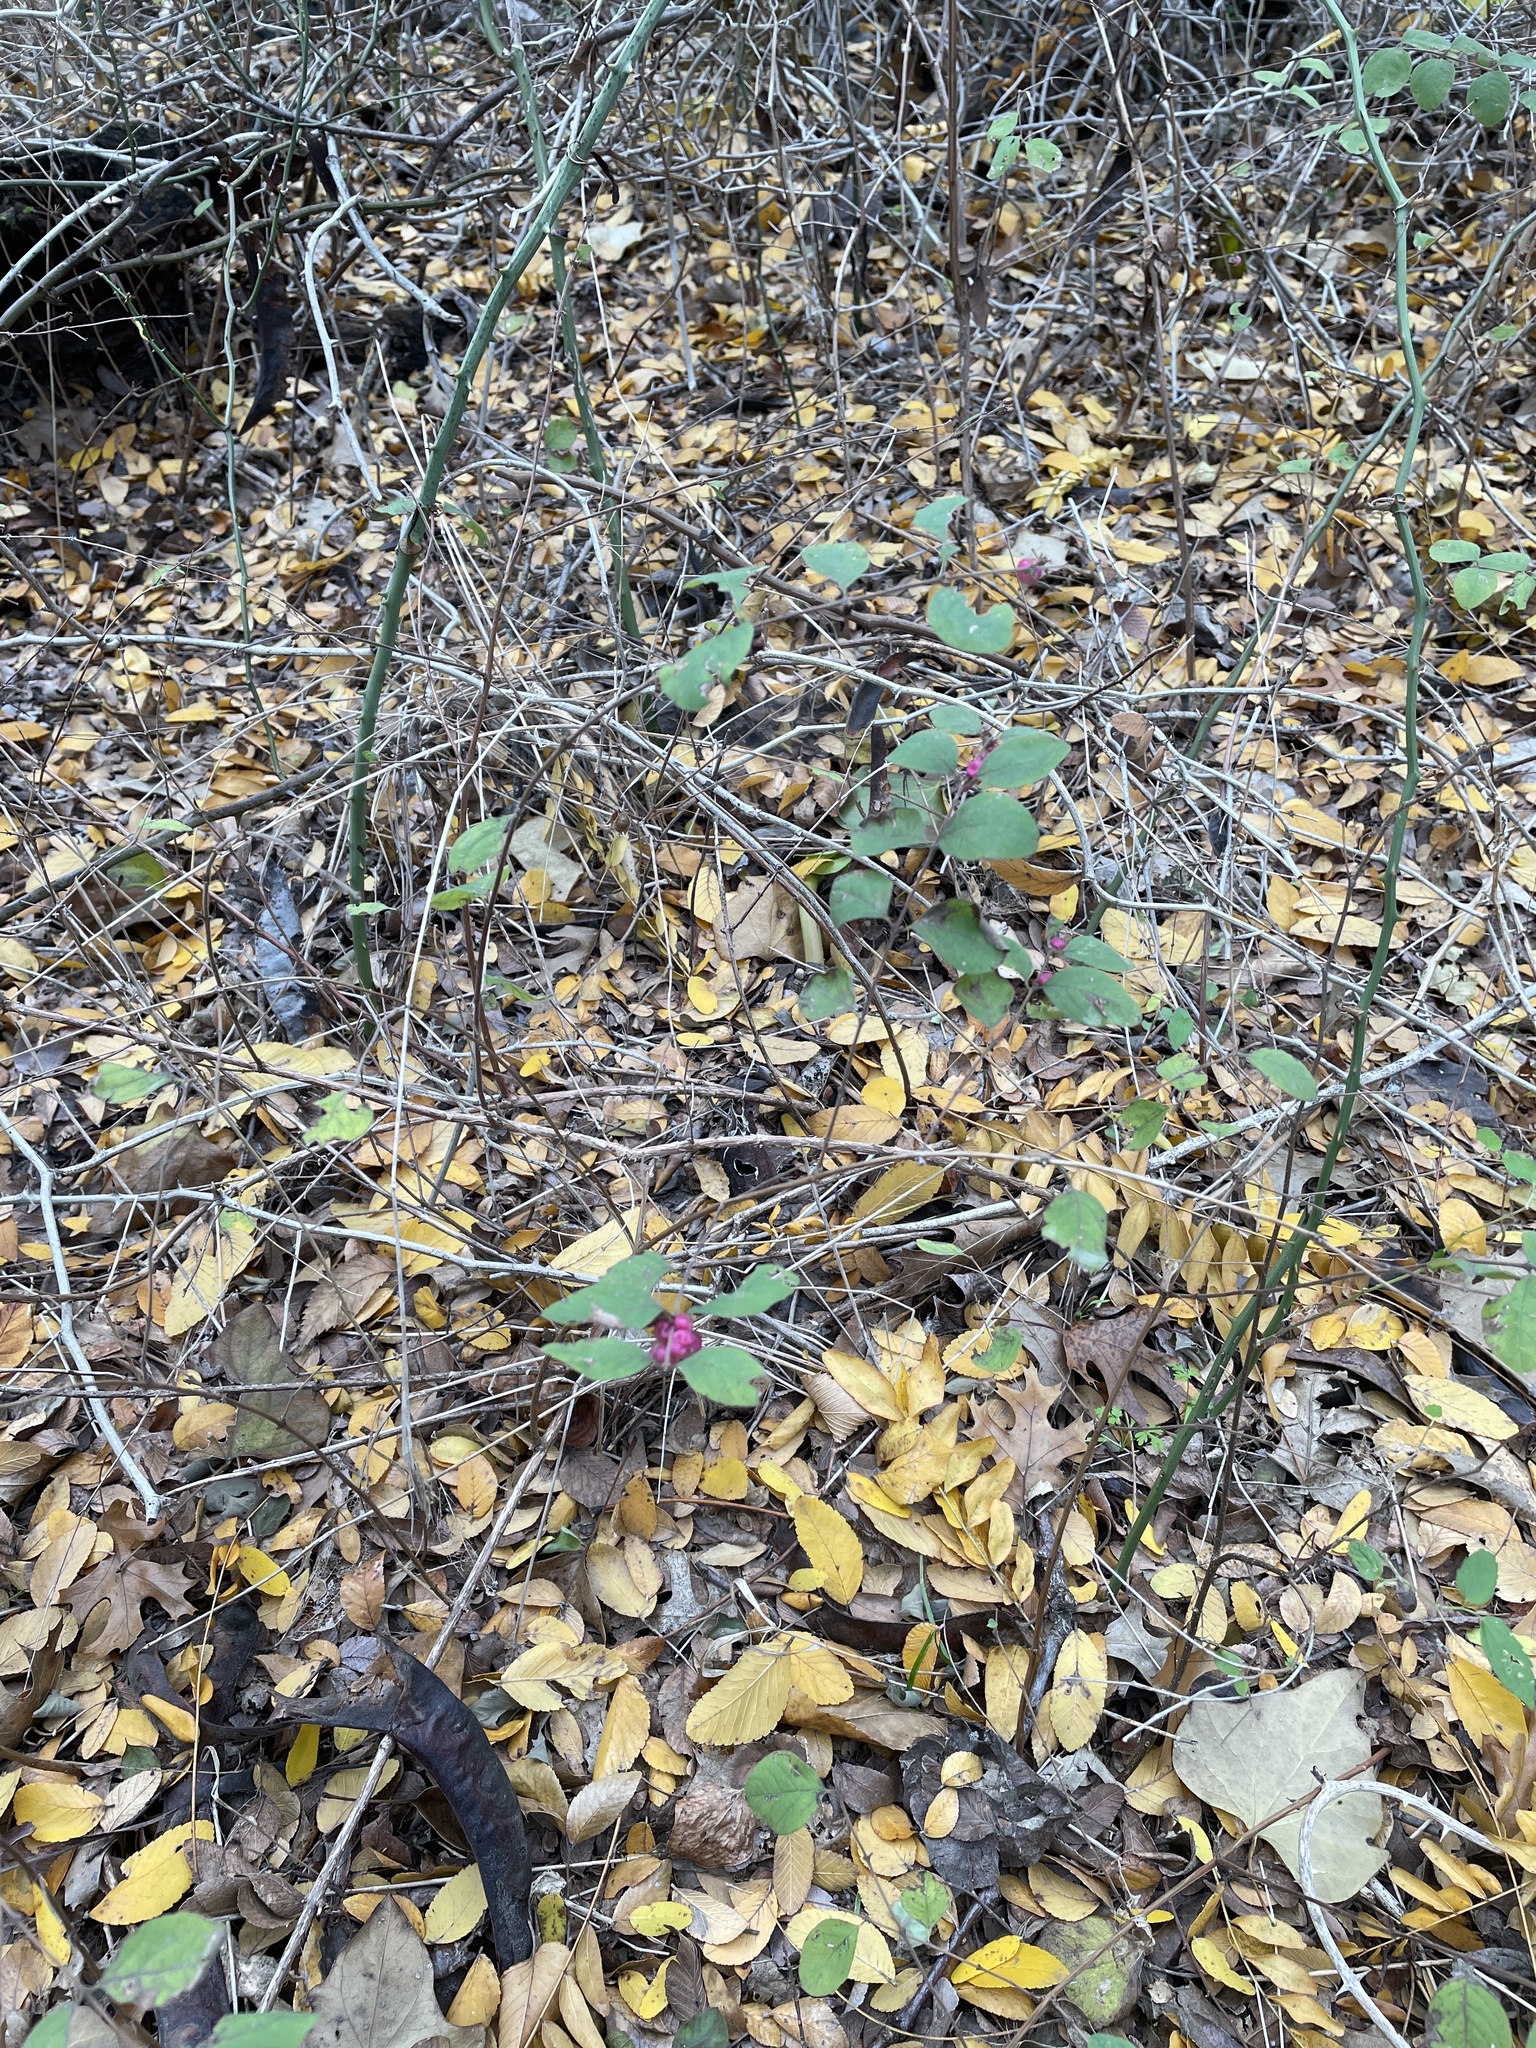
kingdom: Plantae
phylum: Tracheophyta
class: Magnoliopsida
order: Dipsacales
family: Caprifoliaceae
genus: Symphoricarpos
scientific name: Symphoricarpos orbiculatus
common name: Coralberry
